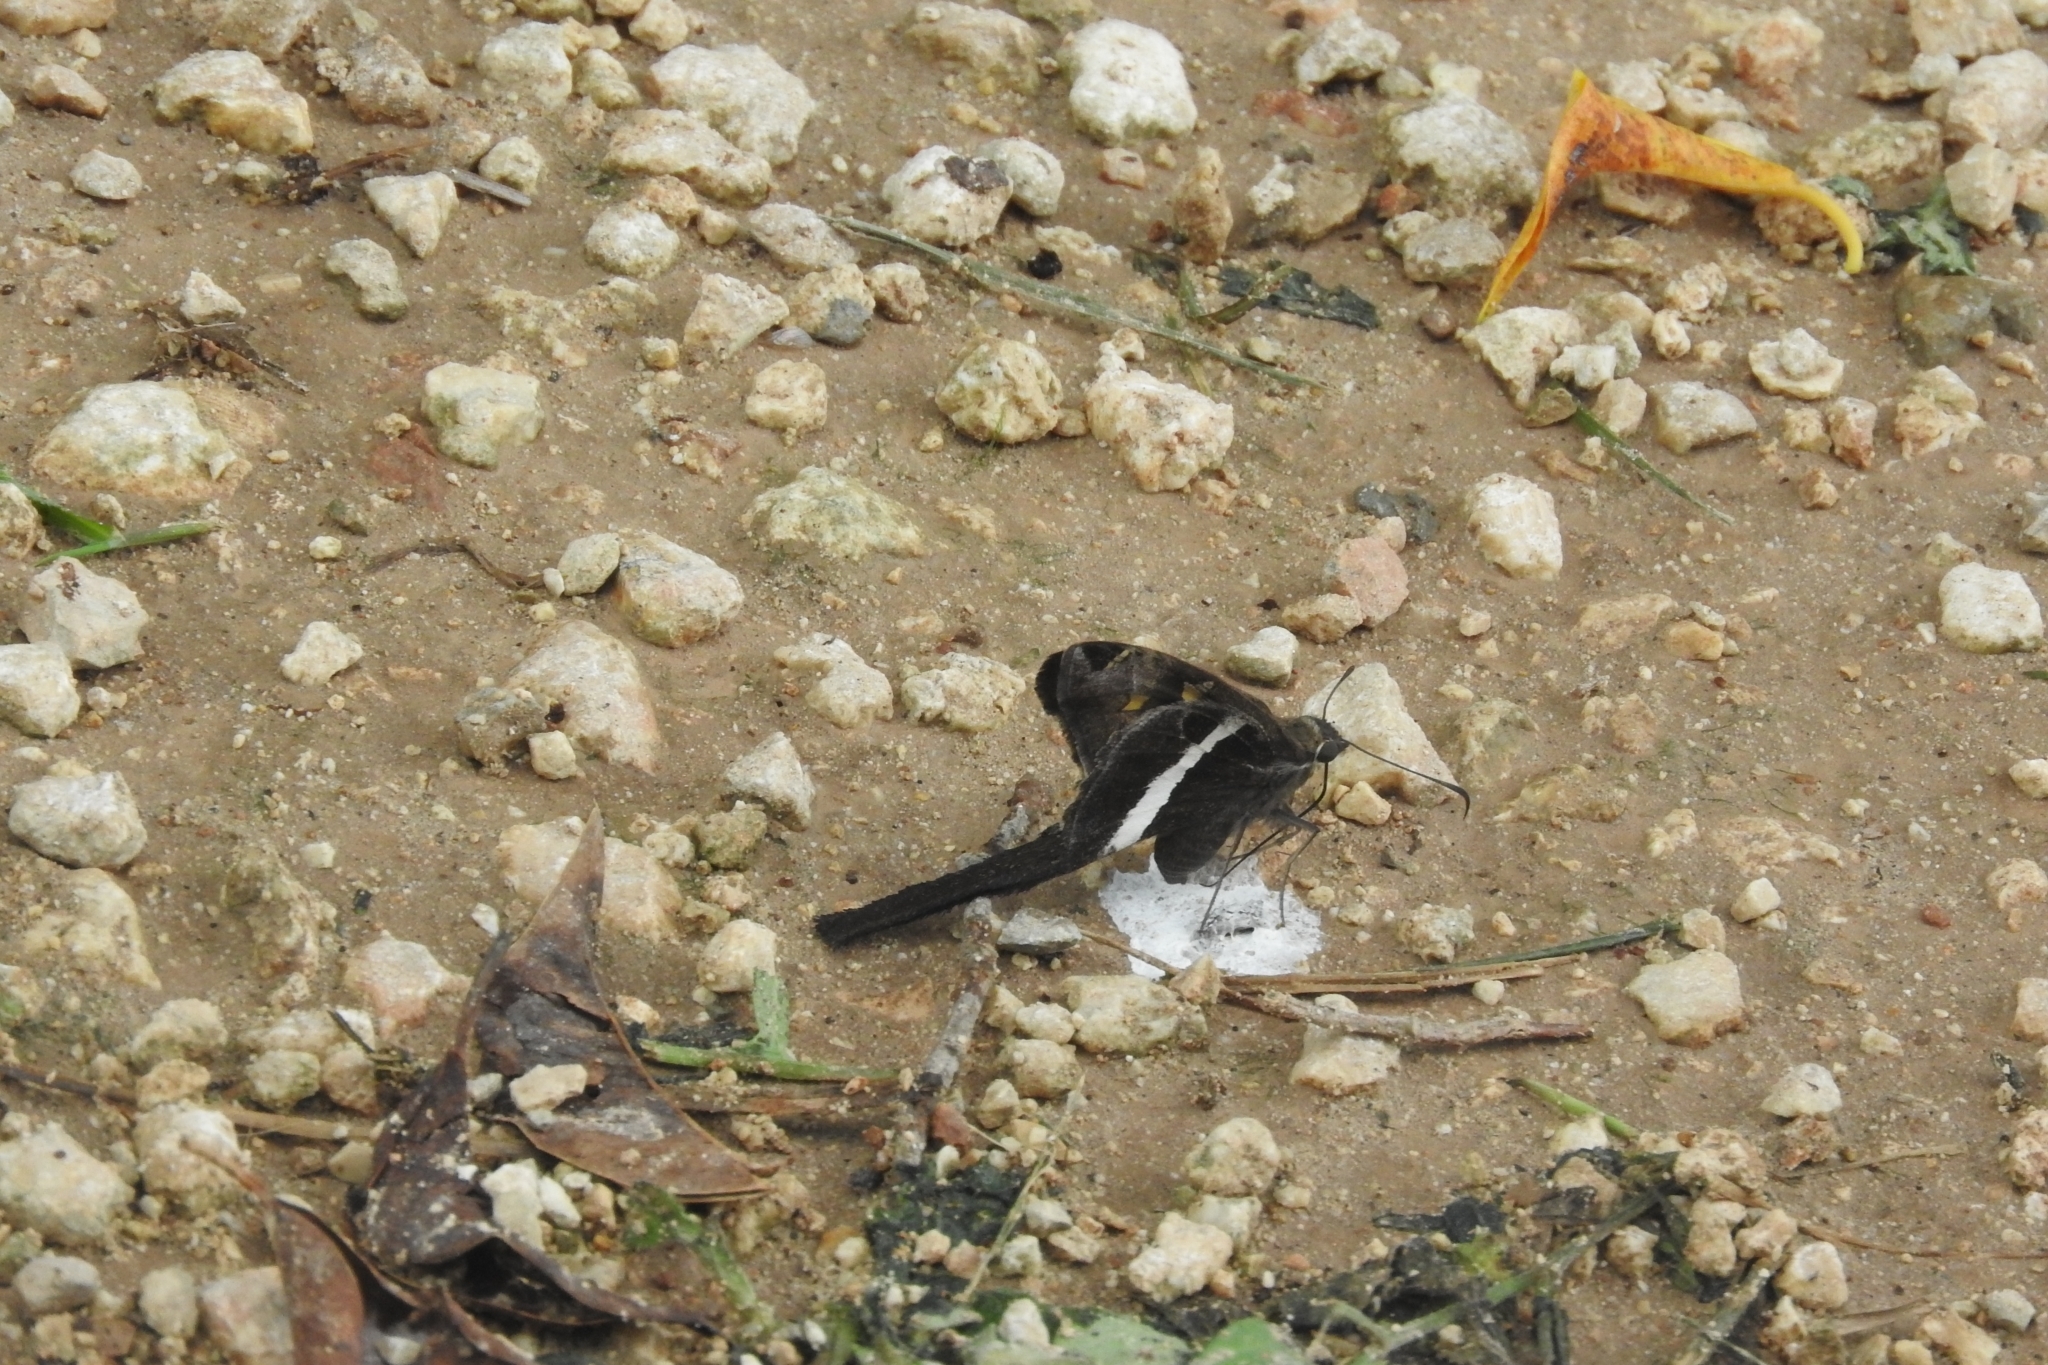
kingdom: Animalia
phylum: Arthropoda
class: Insecta
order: Lepidoptera
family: Hesperiidae
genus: Chioides
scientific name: Chioides catillus
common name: Silverbanded skipper
